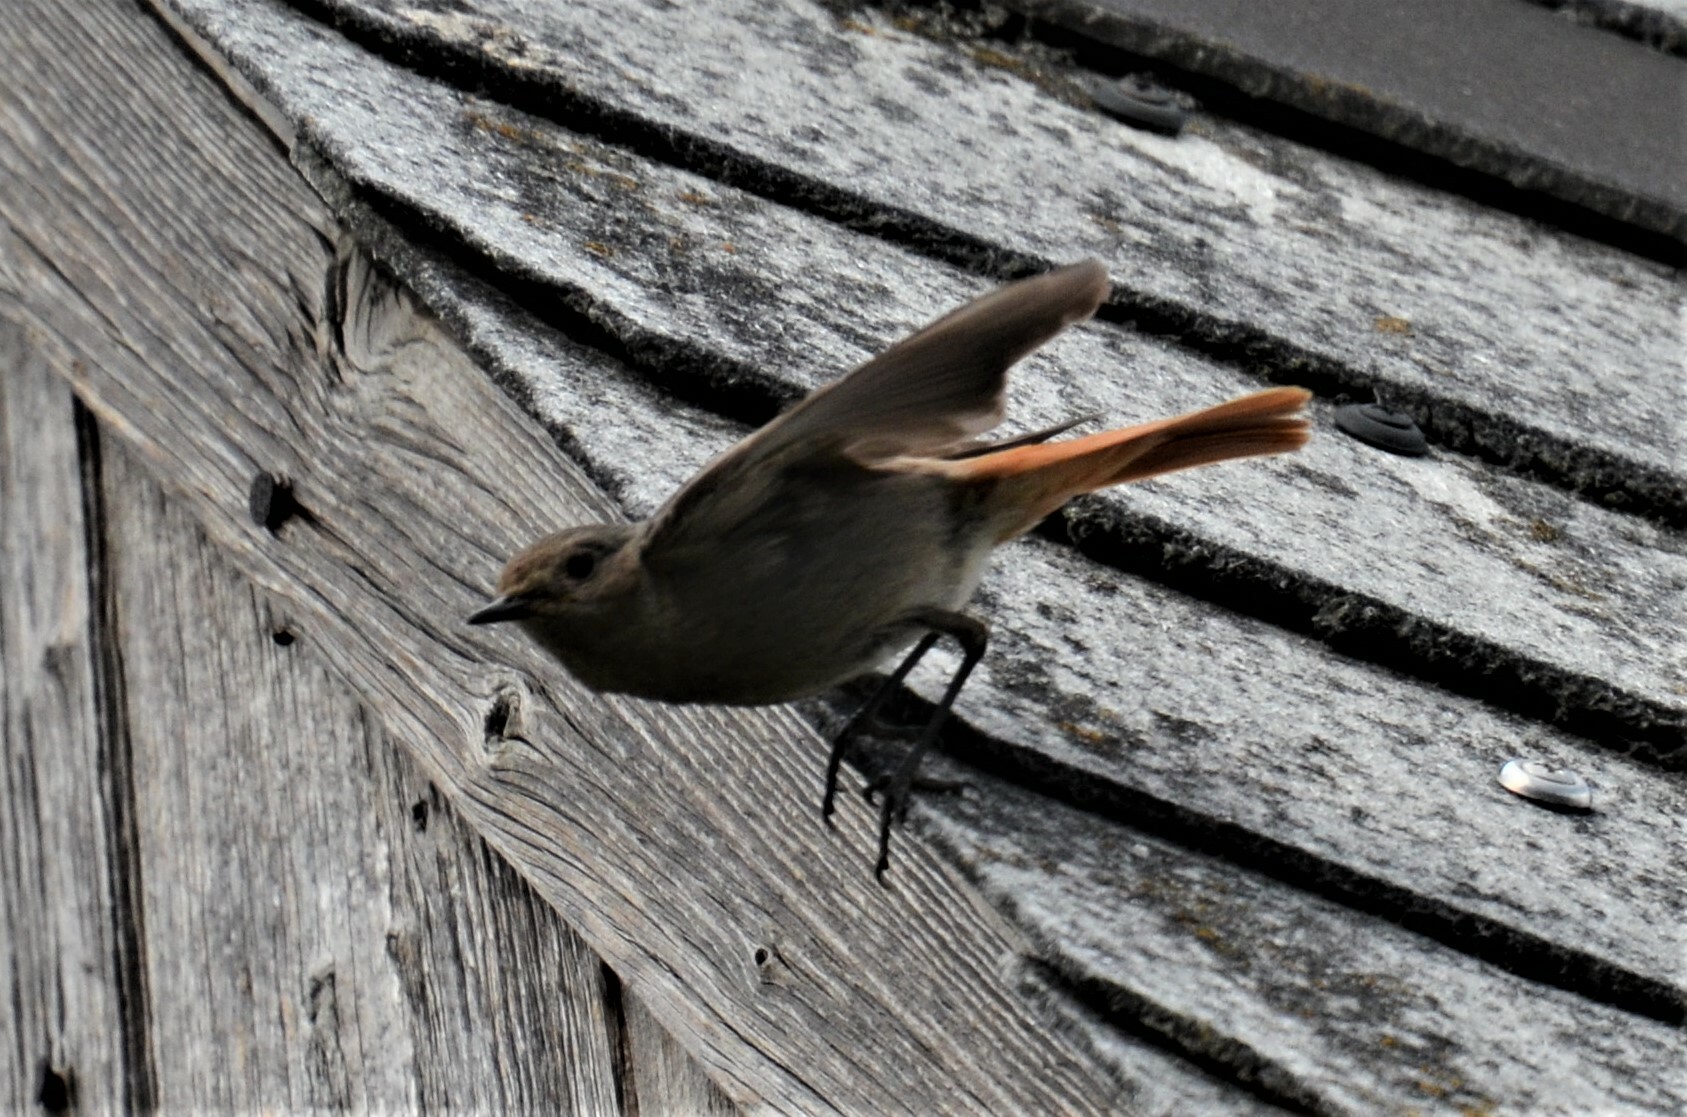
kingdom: Animalia
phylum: Chordata
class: Aves
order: Passeriformes
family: Muscicapidae
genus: Phoenicurus
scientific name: Phoenicurus ochruros
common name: Black redstart
